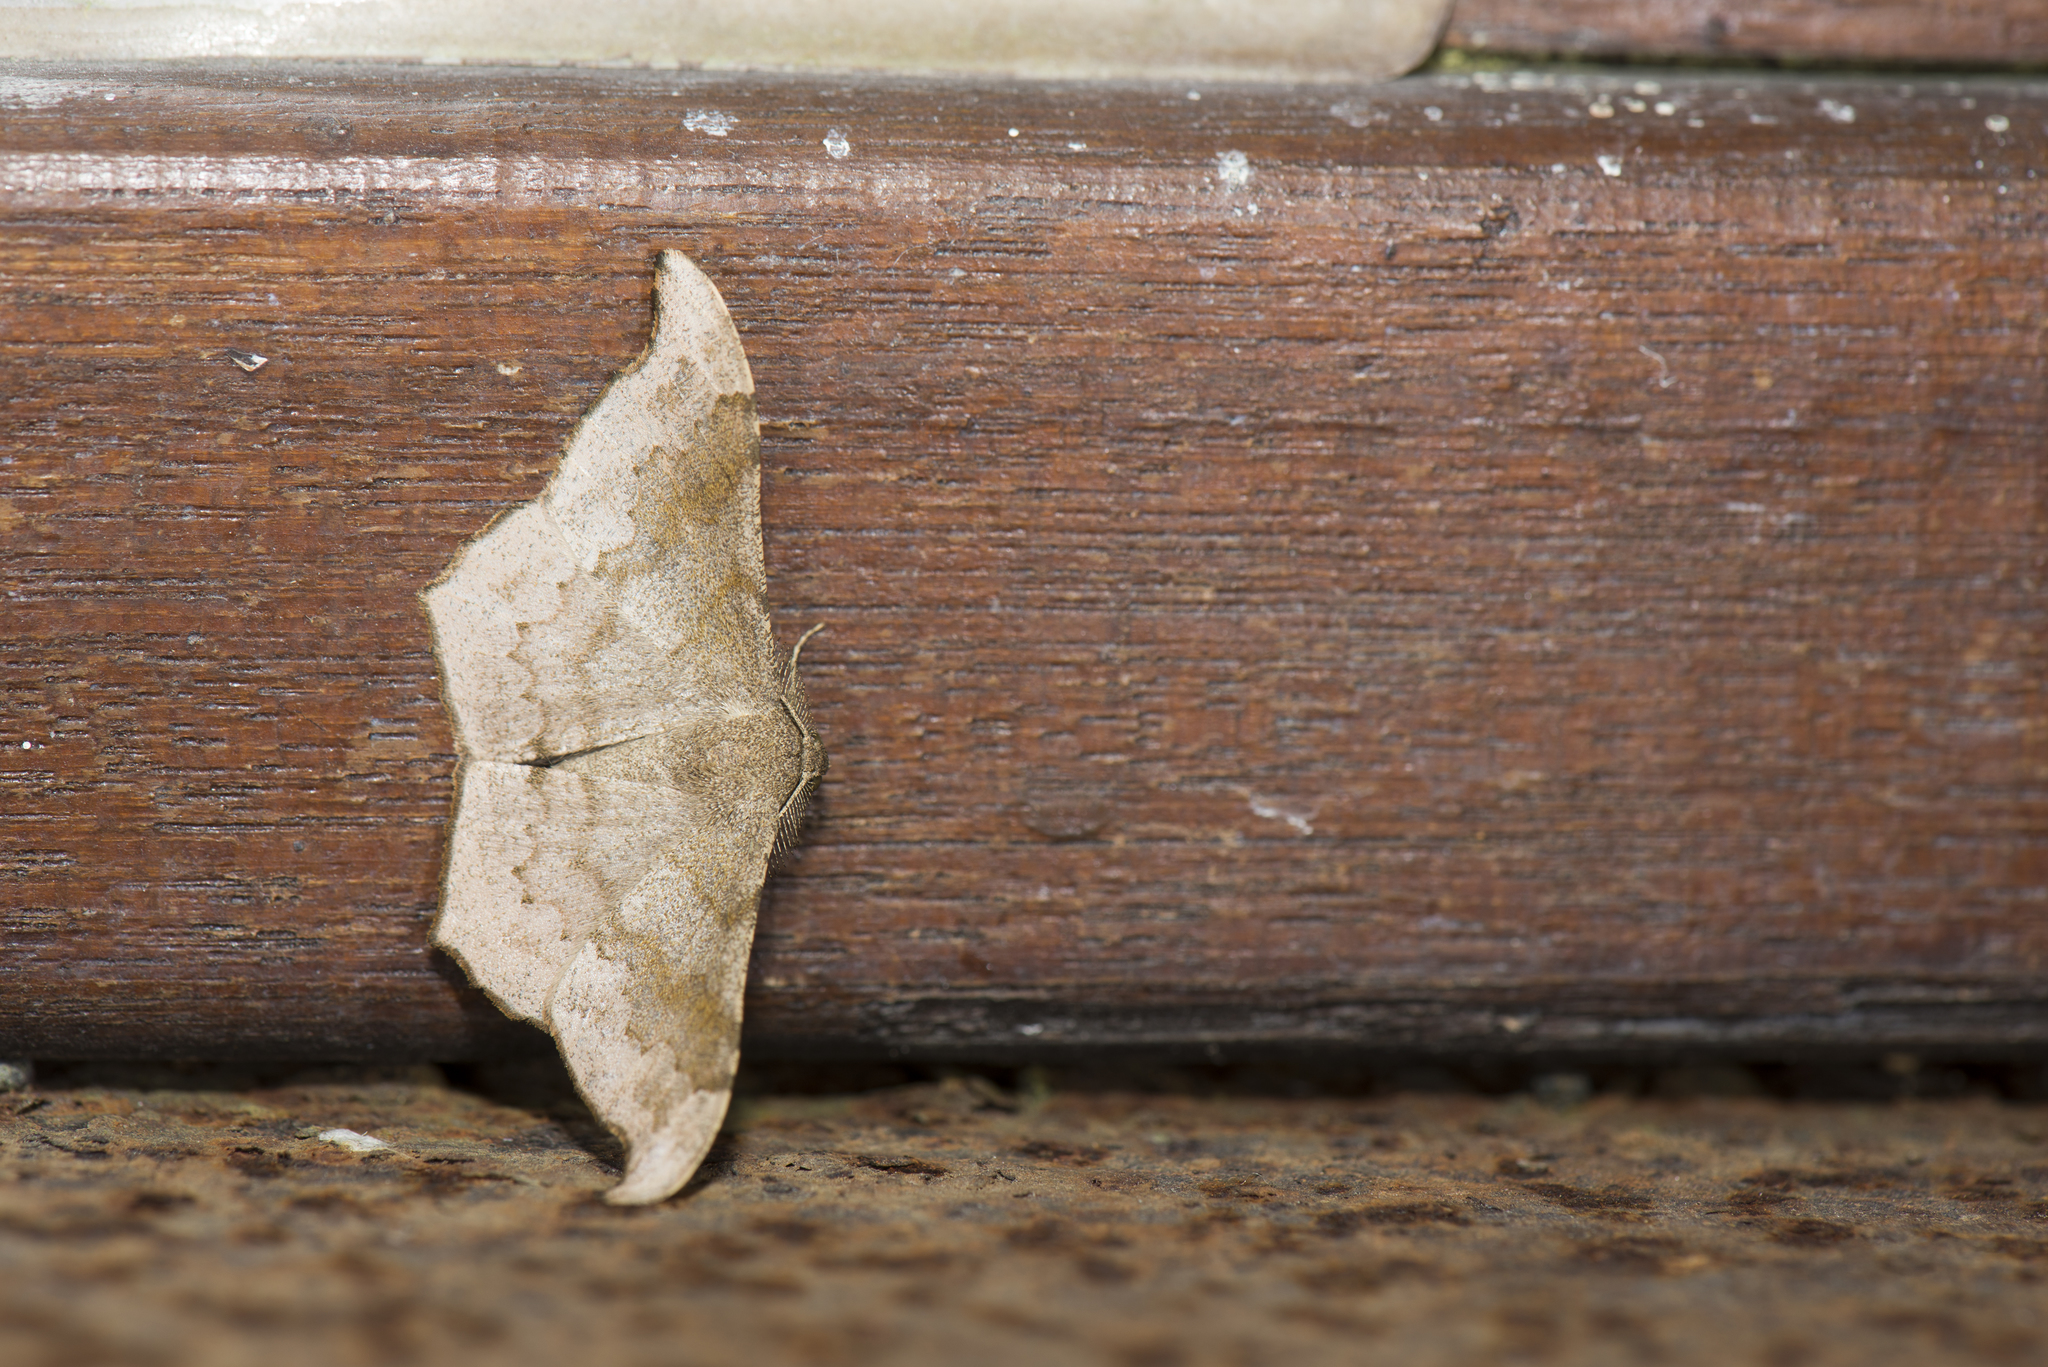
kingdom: Animalia
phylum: Arthropoda
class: Insecta
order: Lepidoptera
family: Geometridae
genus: Hyposidra
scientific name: Hyposidra talaca
